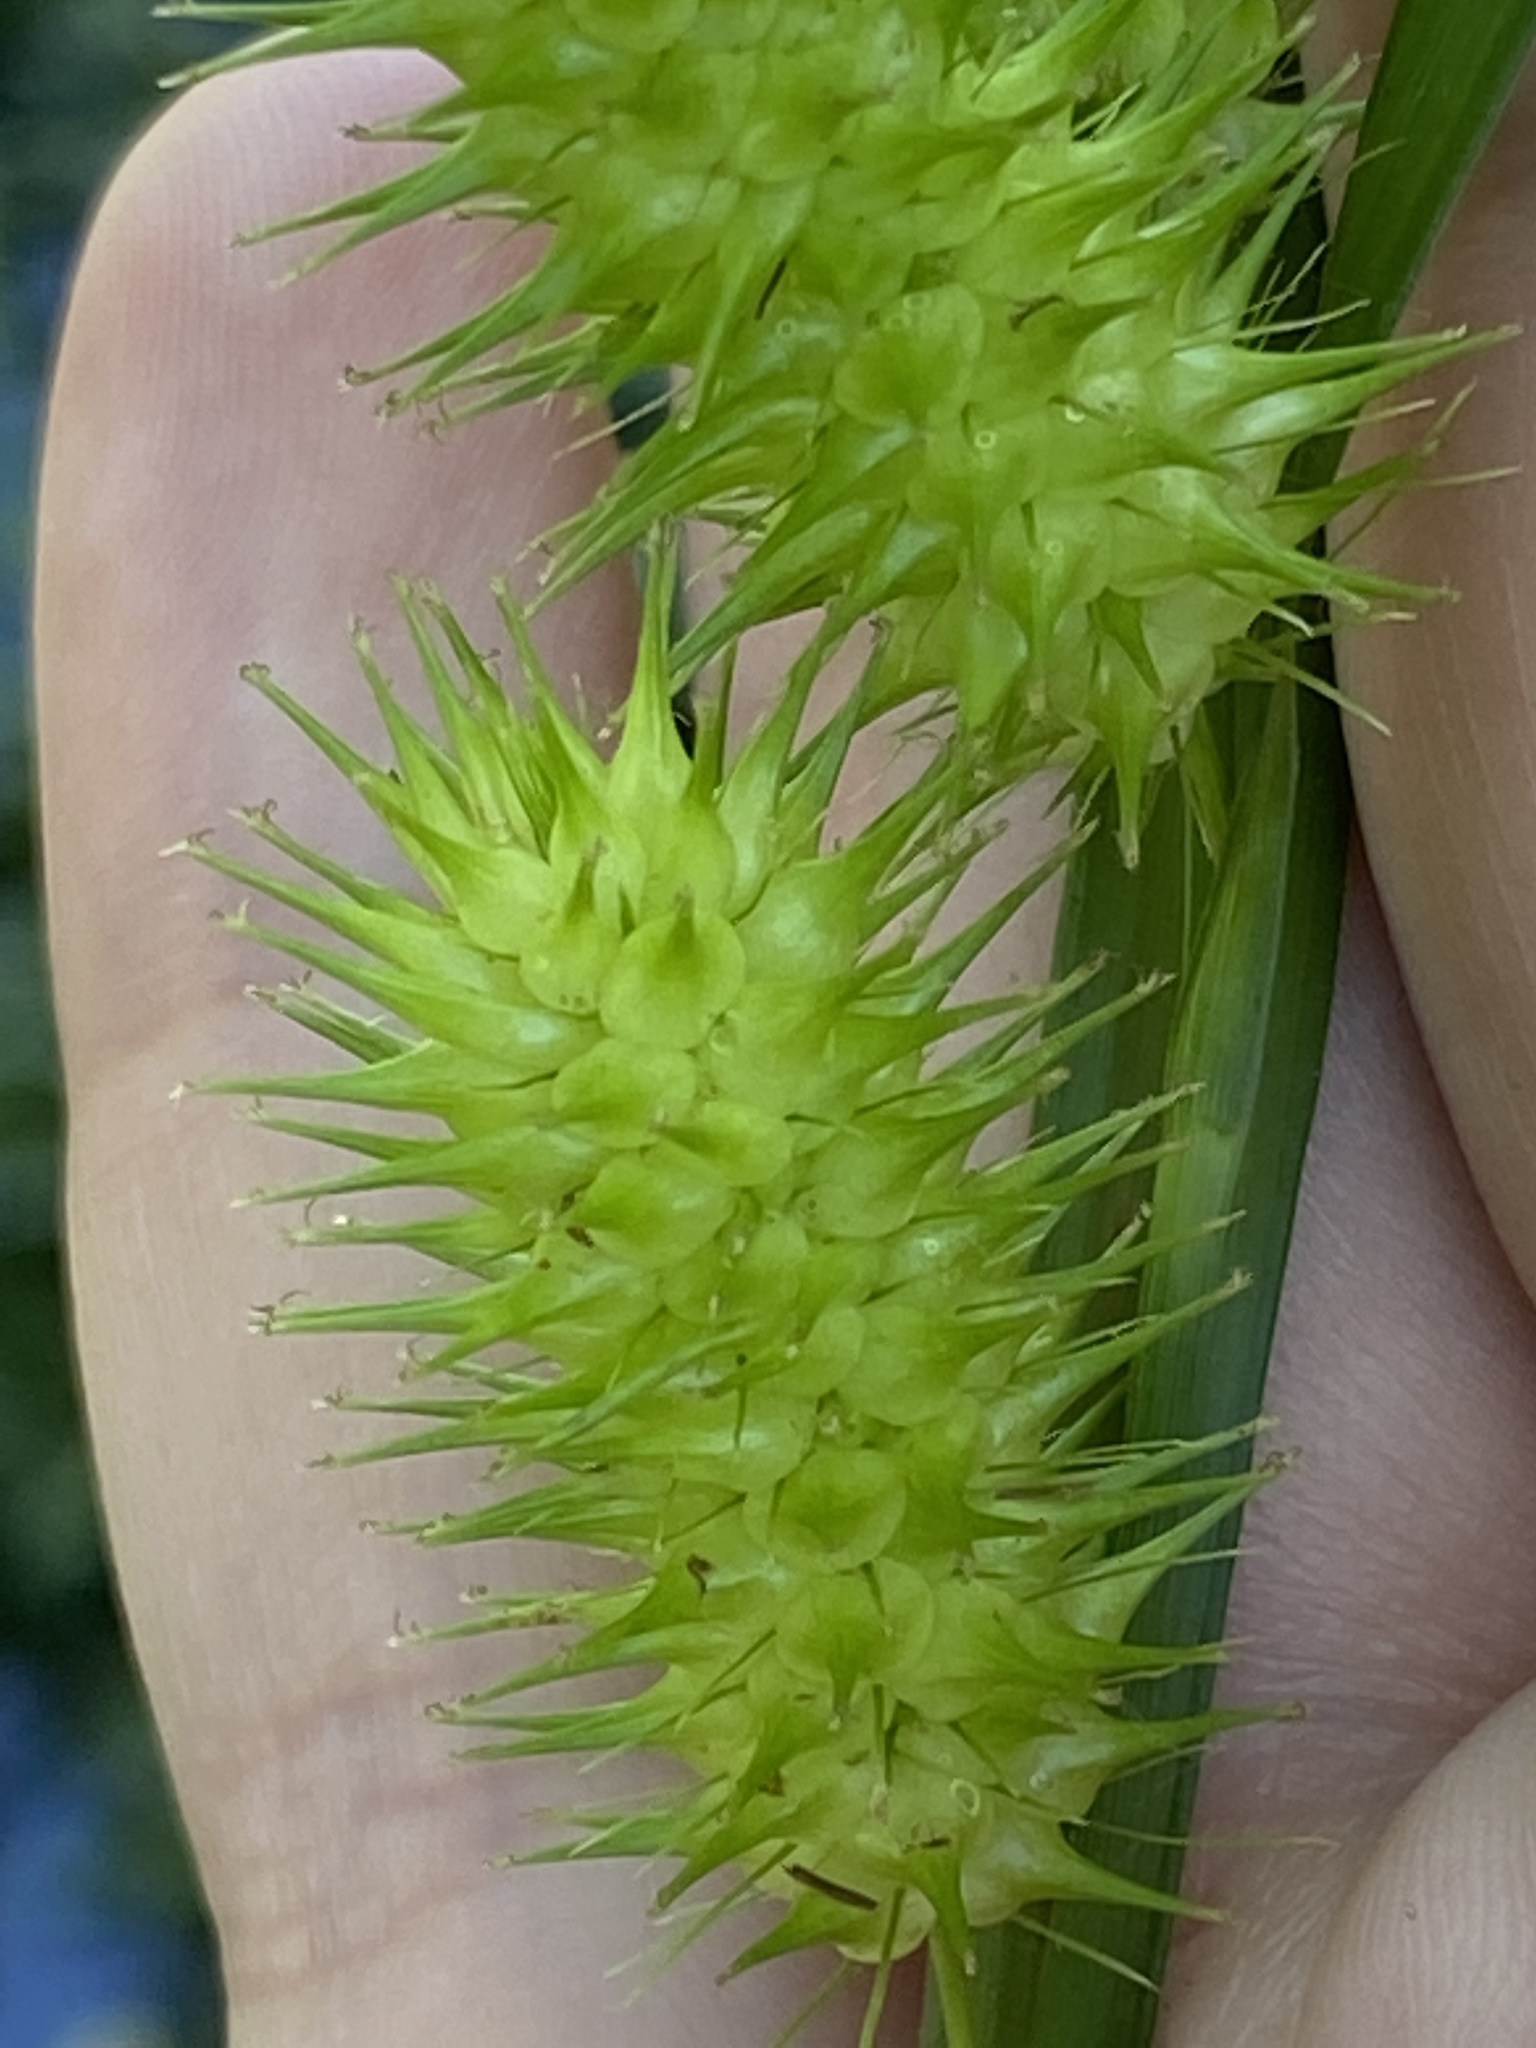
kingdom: Plantae
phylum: Tracheophyta
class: Liliopsida
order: Poales
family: Cyperaceae
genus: Carex
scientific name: Carex lurida
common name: Sallow sedge
